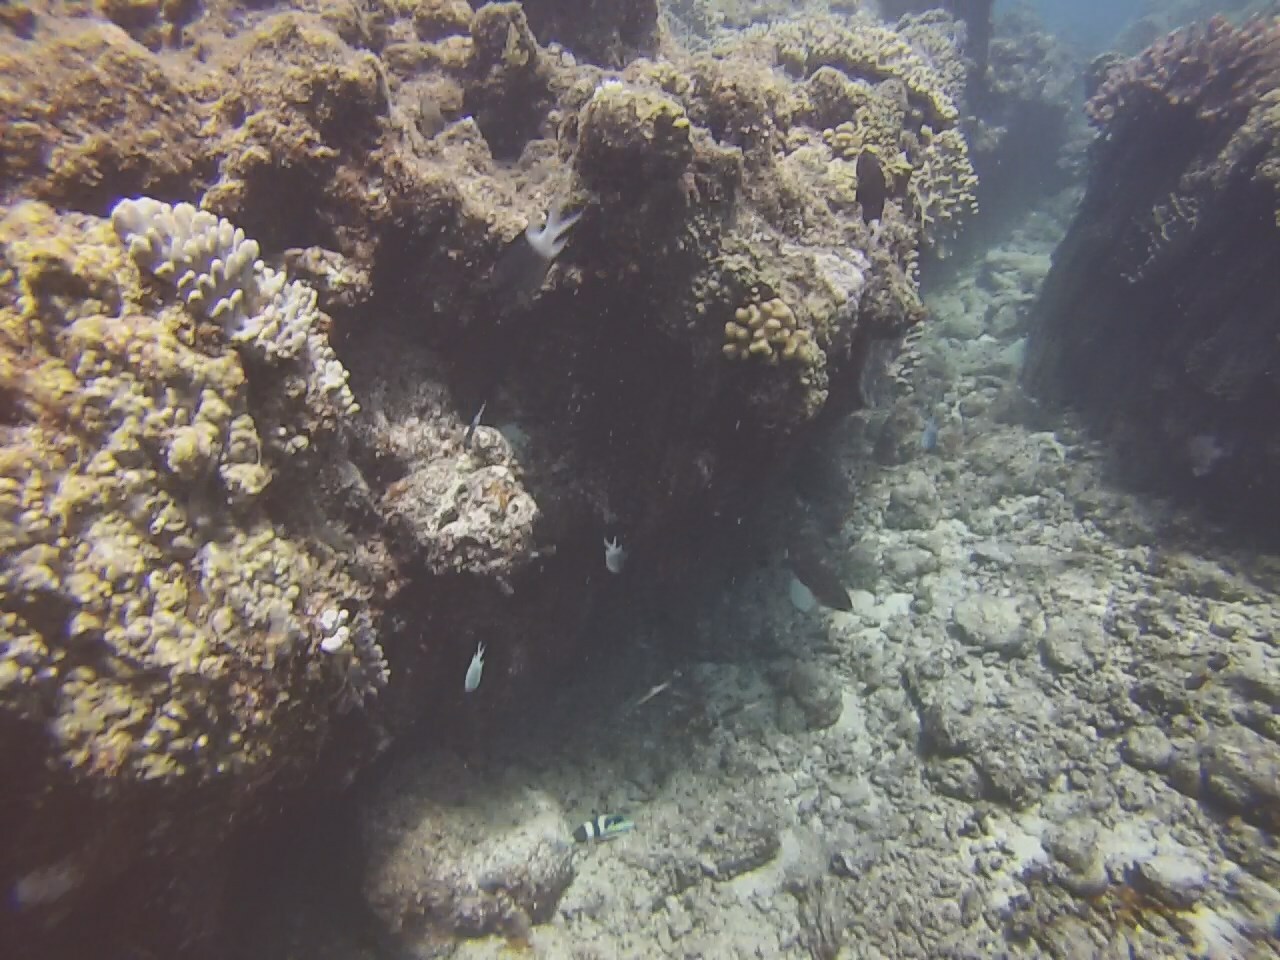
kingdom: Animalia
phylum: Chordata
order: Perciformes
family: Pomacentridae
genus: Acanthochromis
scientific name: Acanthochromis polyacanthus
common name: Spiny chromis
